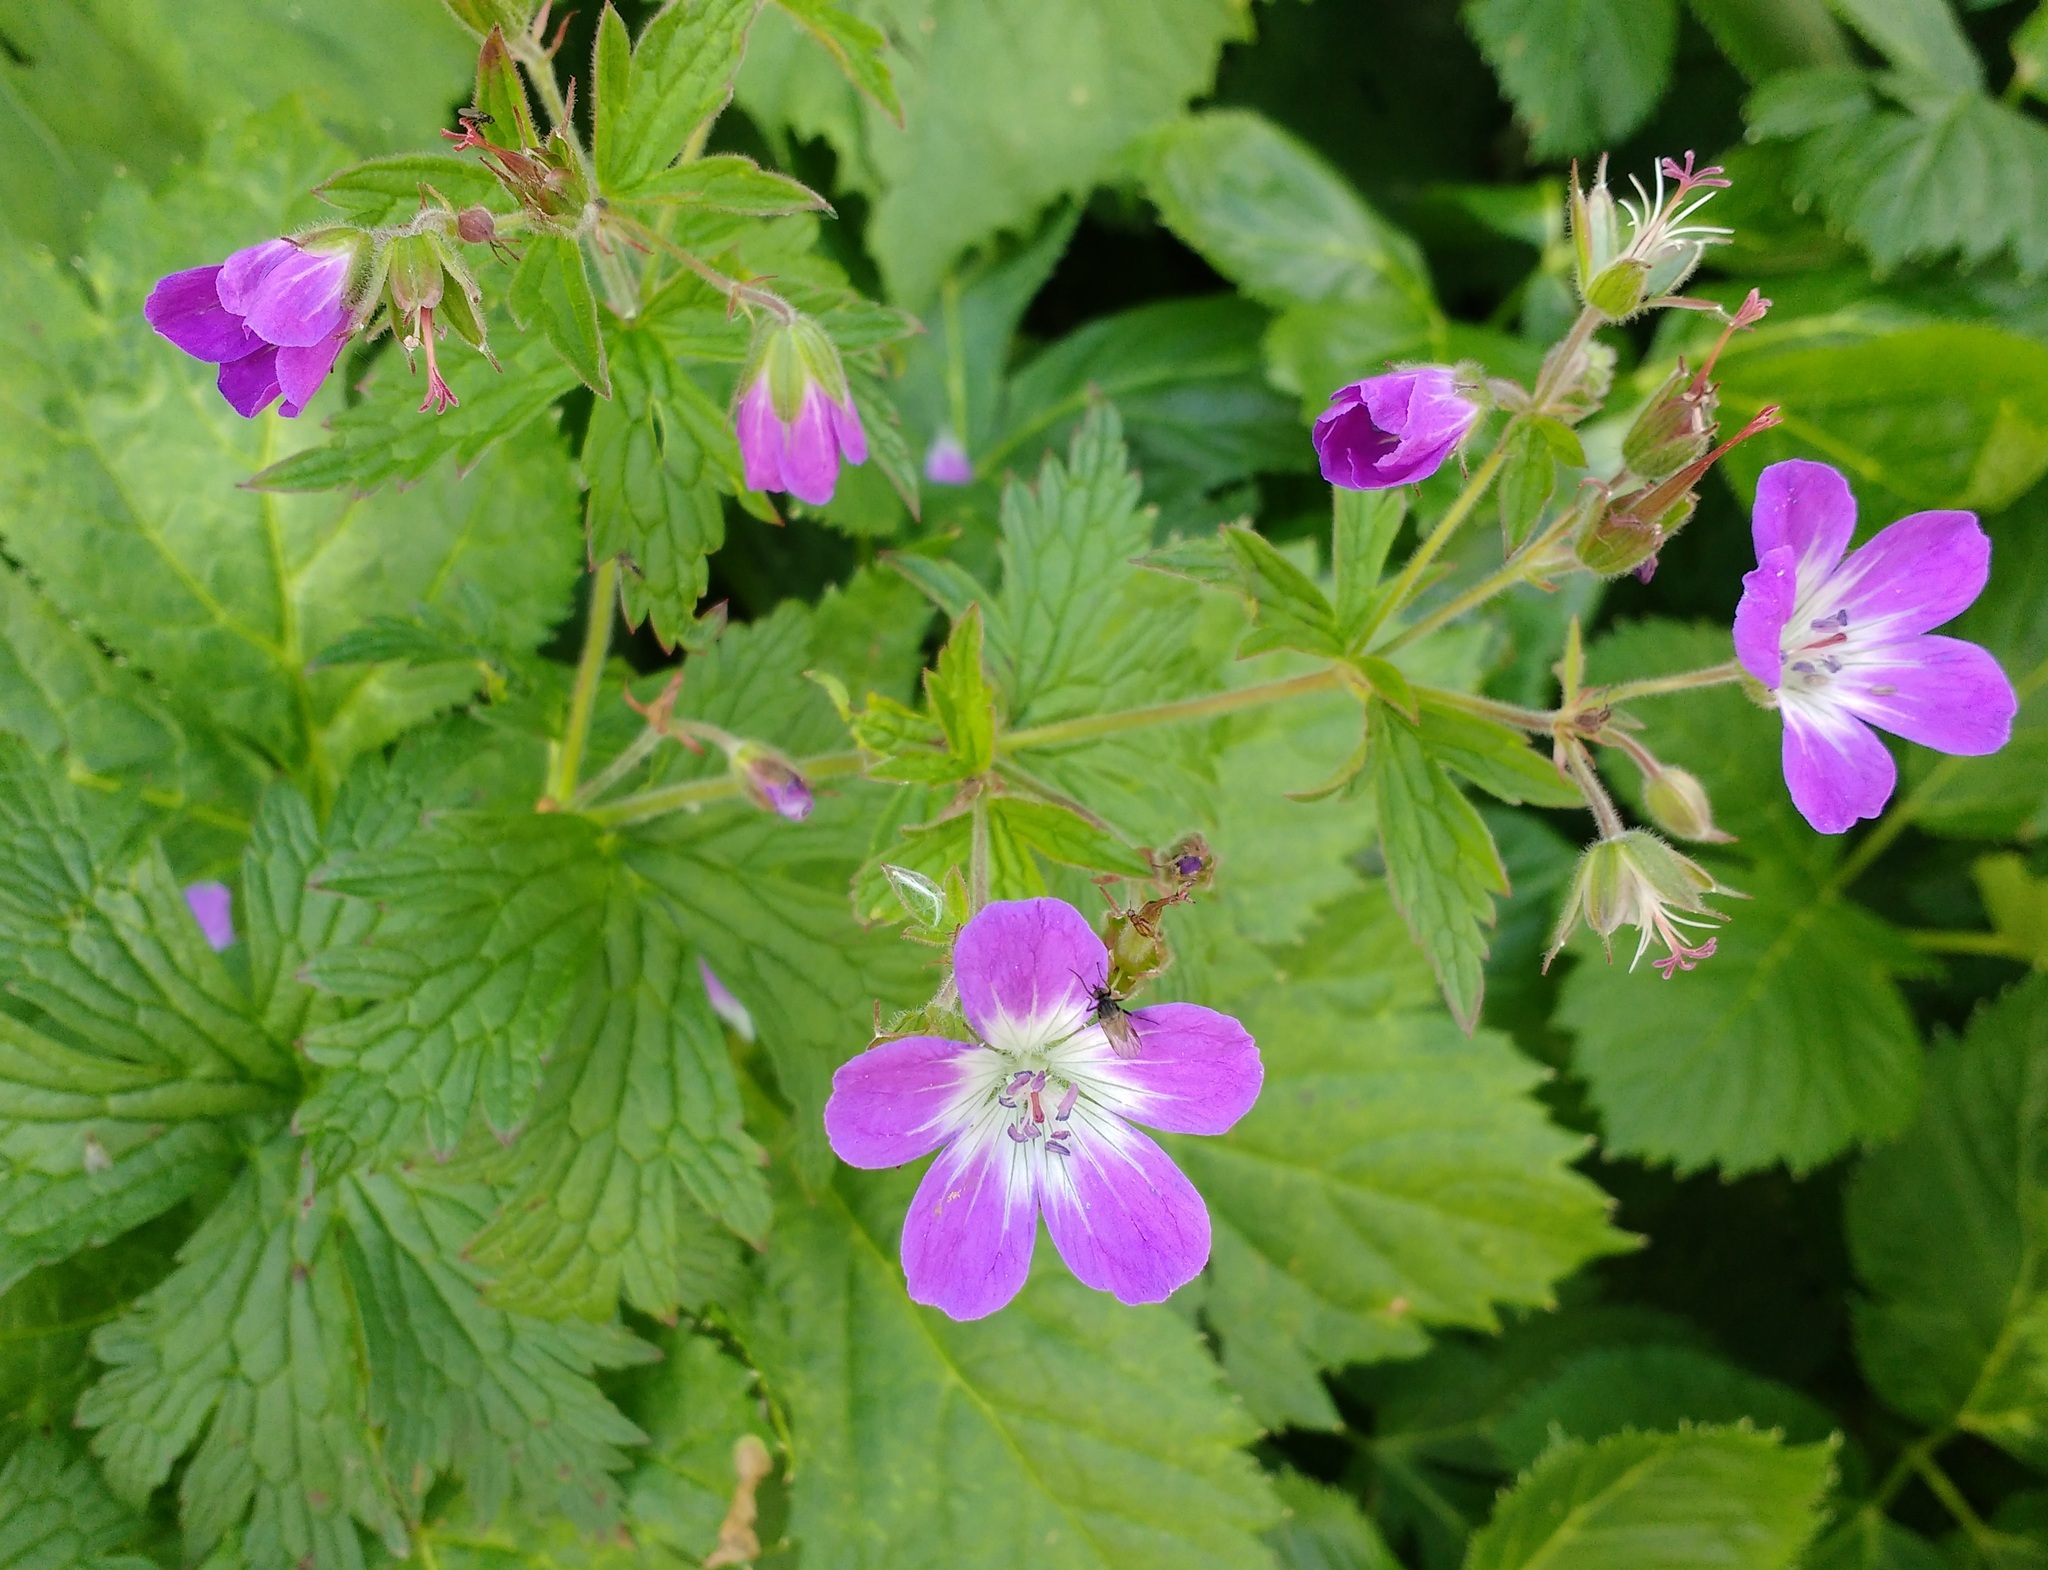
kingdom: Plantae
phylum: Tracheophyta
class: Magnoliopsida
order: Geraniales
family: Geraniaceae
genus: Geranium
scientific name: Geranium sylvaticum
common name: Wood crane's-bill
